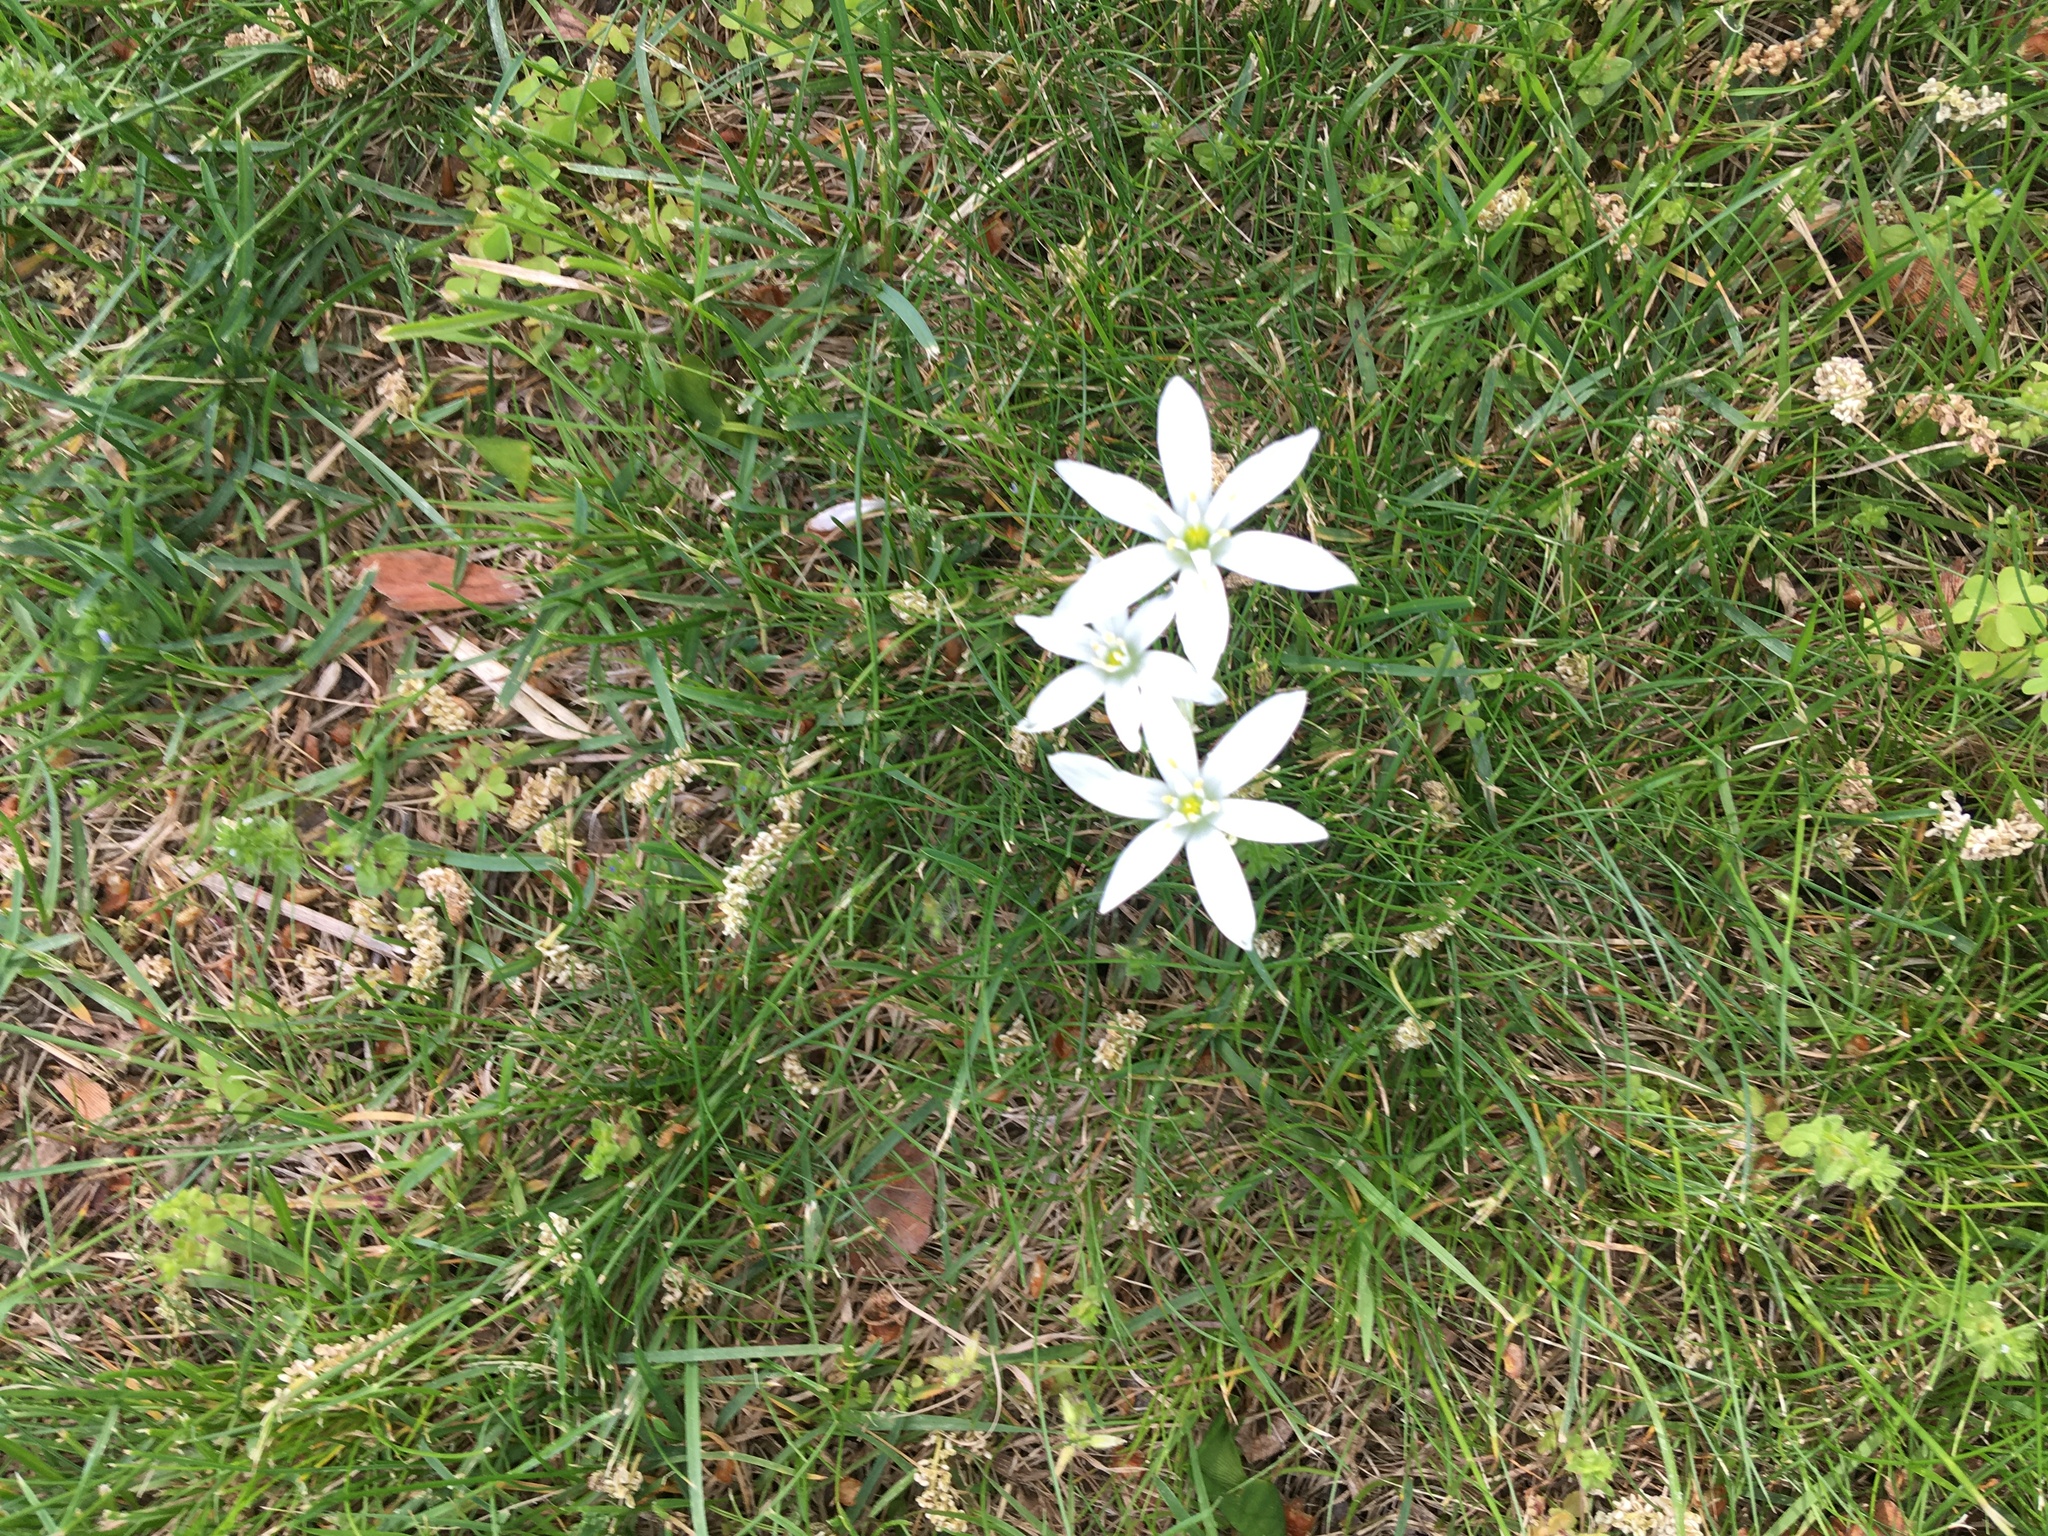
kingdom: Plantae
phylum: Tracheophyta
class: Liliopsida
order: Asparagales
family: Asparagaceae
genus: Ornithogalum
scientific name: Ornithogalum umbellatum
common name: Garden star-of-bethlehem
